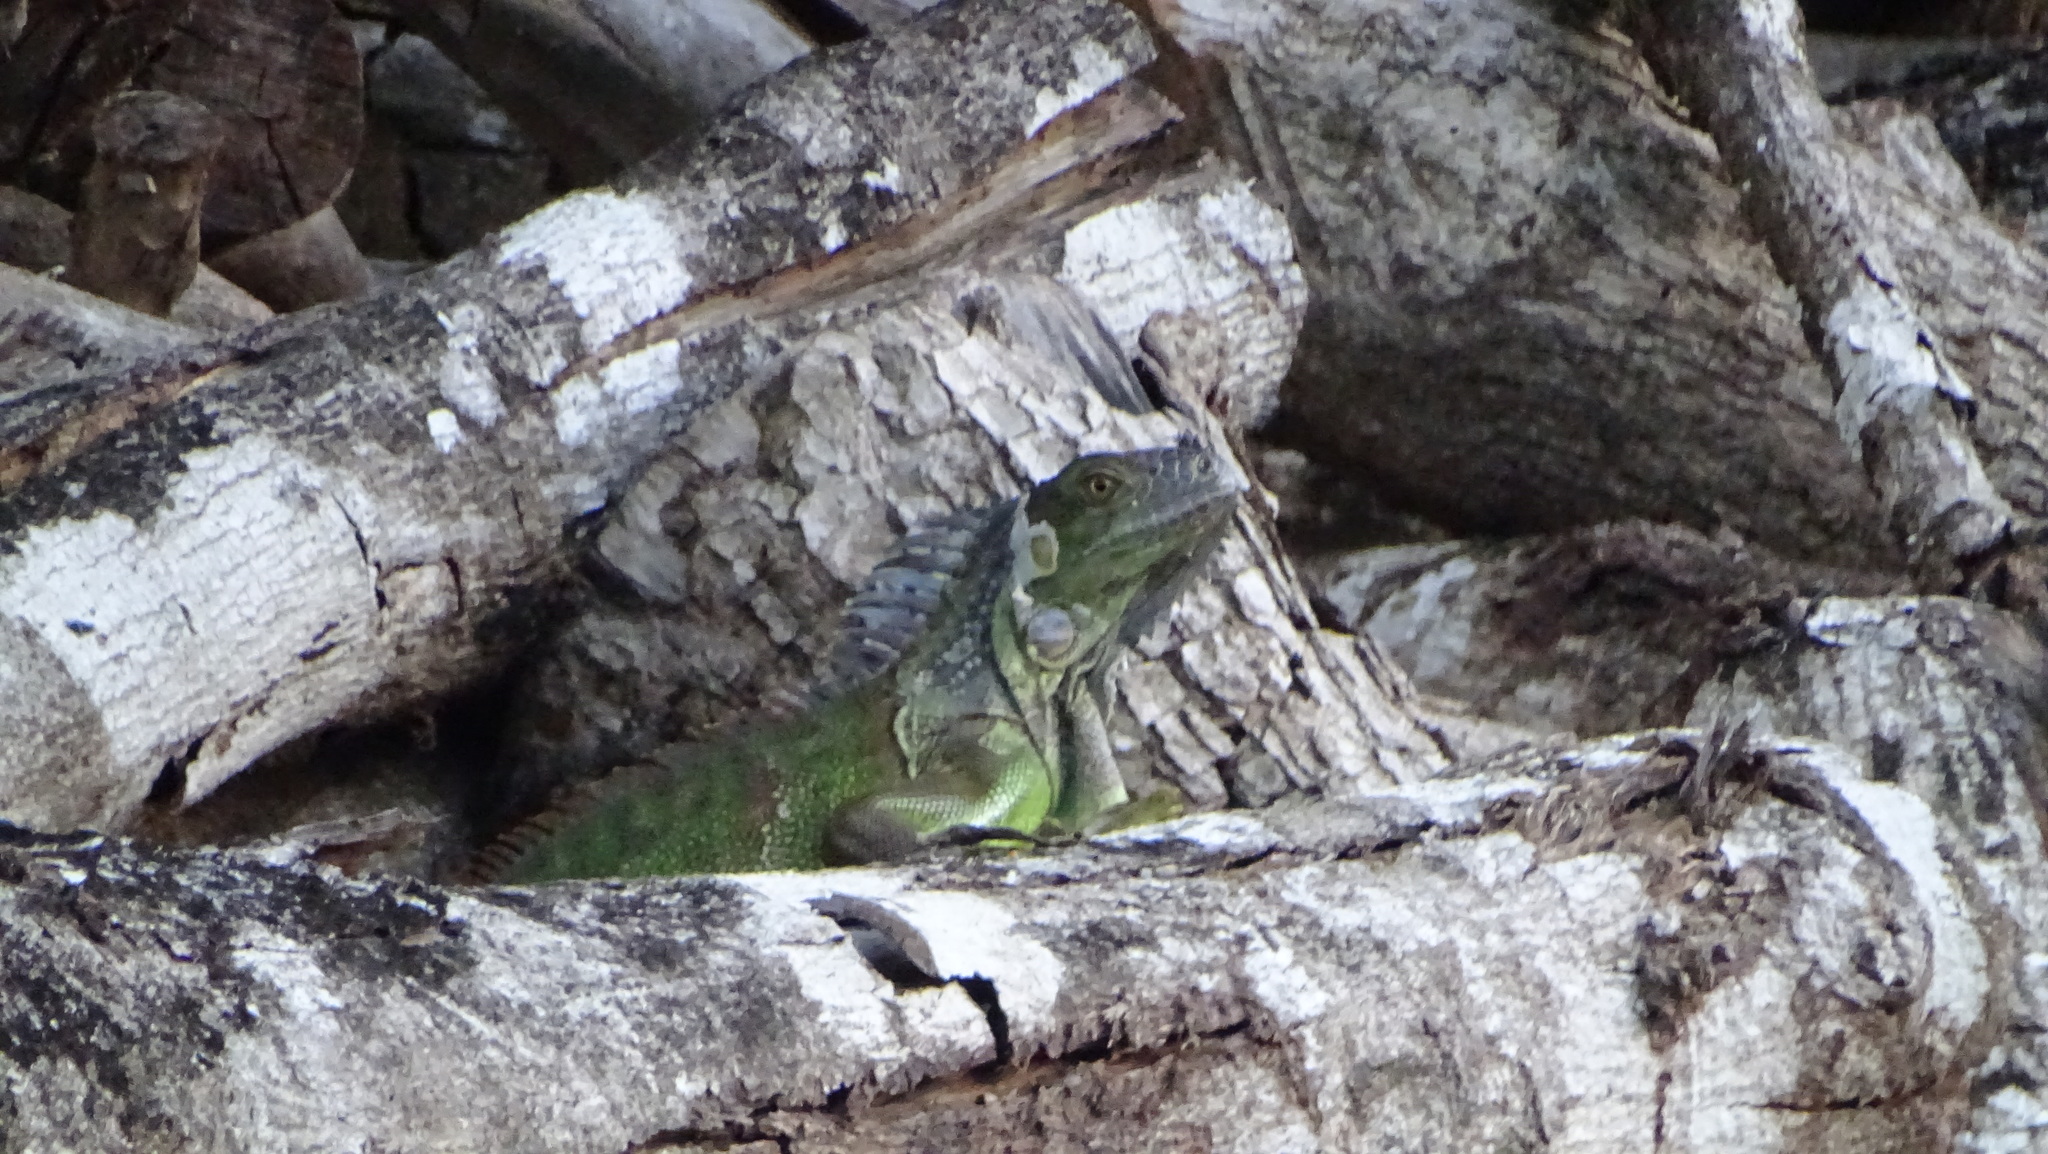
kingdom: Animalia
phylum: Chordata
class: Squamata
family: Iguanidae
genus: Iguana
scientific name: Iguana iguana
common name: Green iguana
